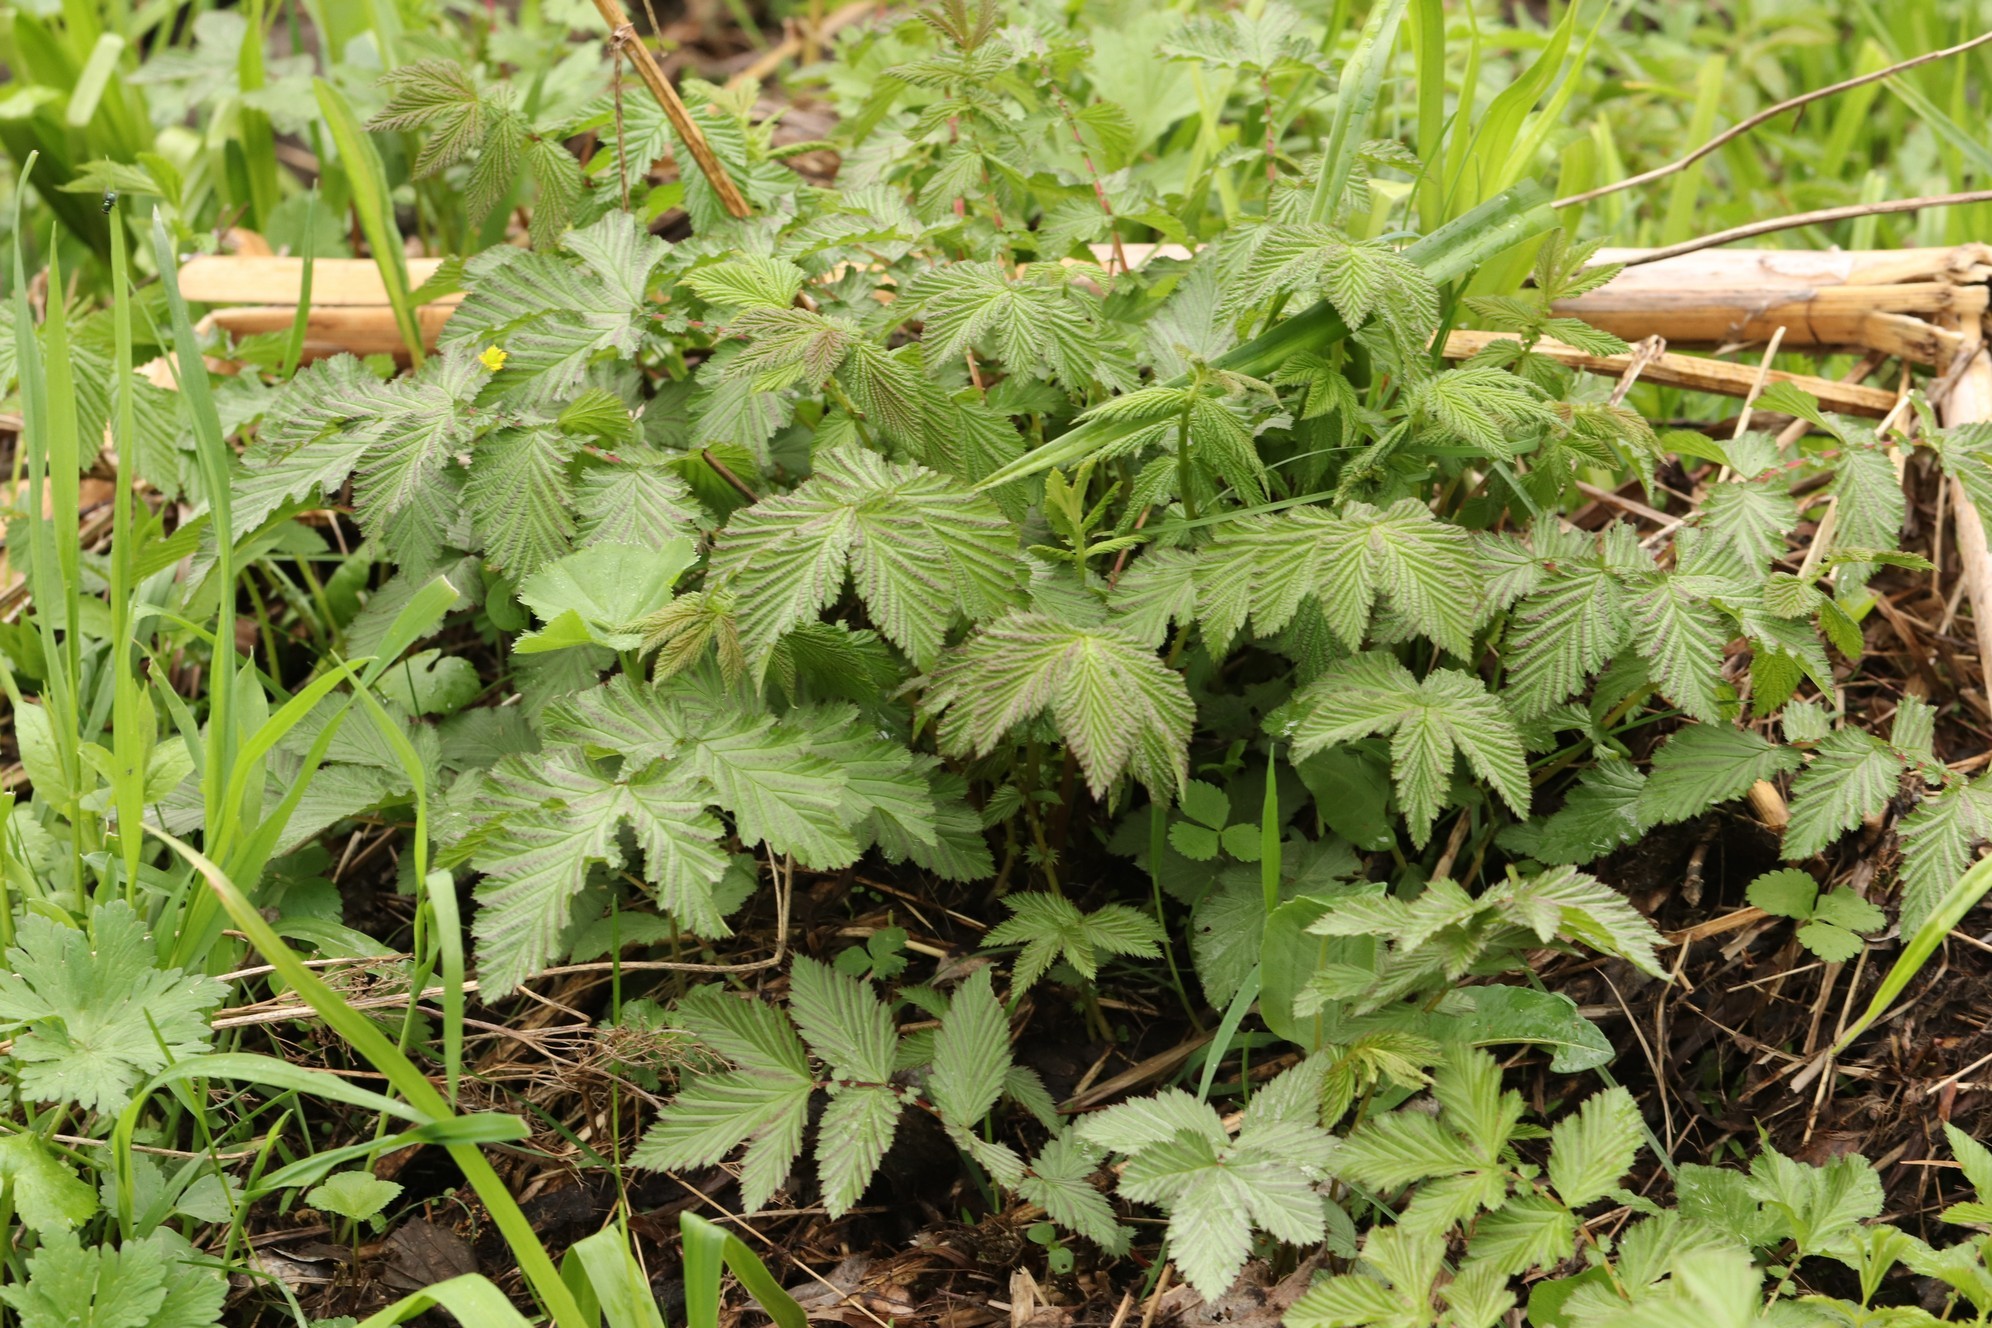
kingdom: Plantae
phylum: Tracheophyta
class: Magnoliopsida
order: Rosales
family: Rosaceae
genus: Filipendula
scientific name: Filipendula ulmaria
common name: Meadowsweet
